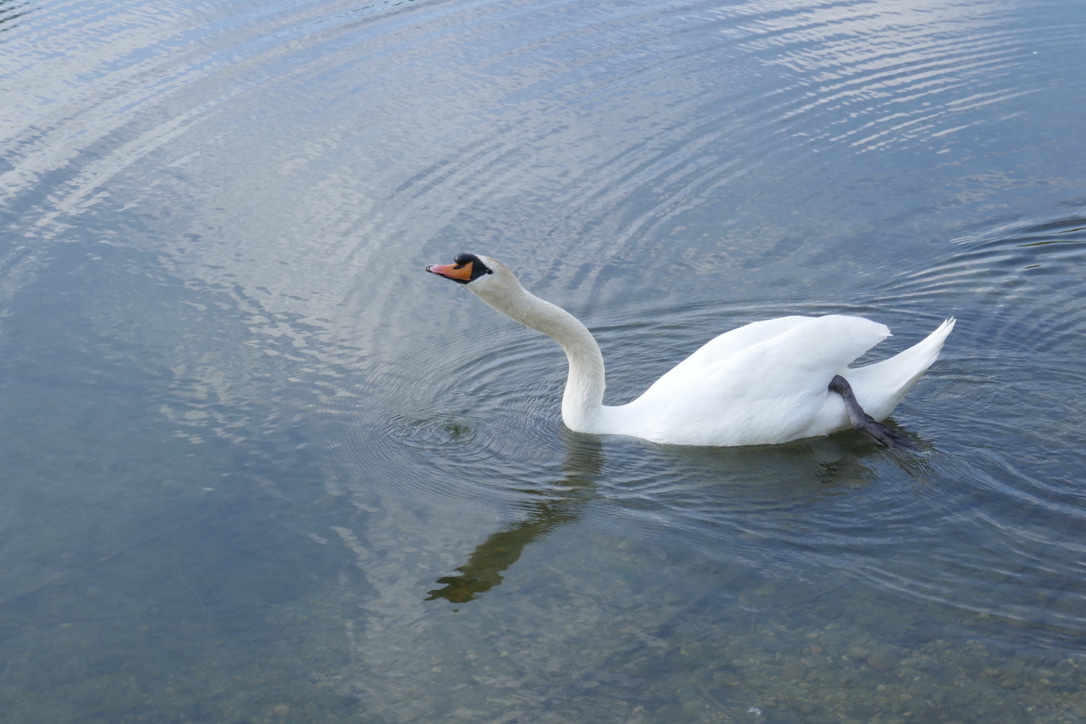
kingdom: Animalia
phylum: Chordata
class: Aves
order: Anseriformes
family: Anatidae
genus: Cygnus
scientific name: Cygnus olor
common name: Mute swan
